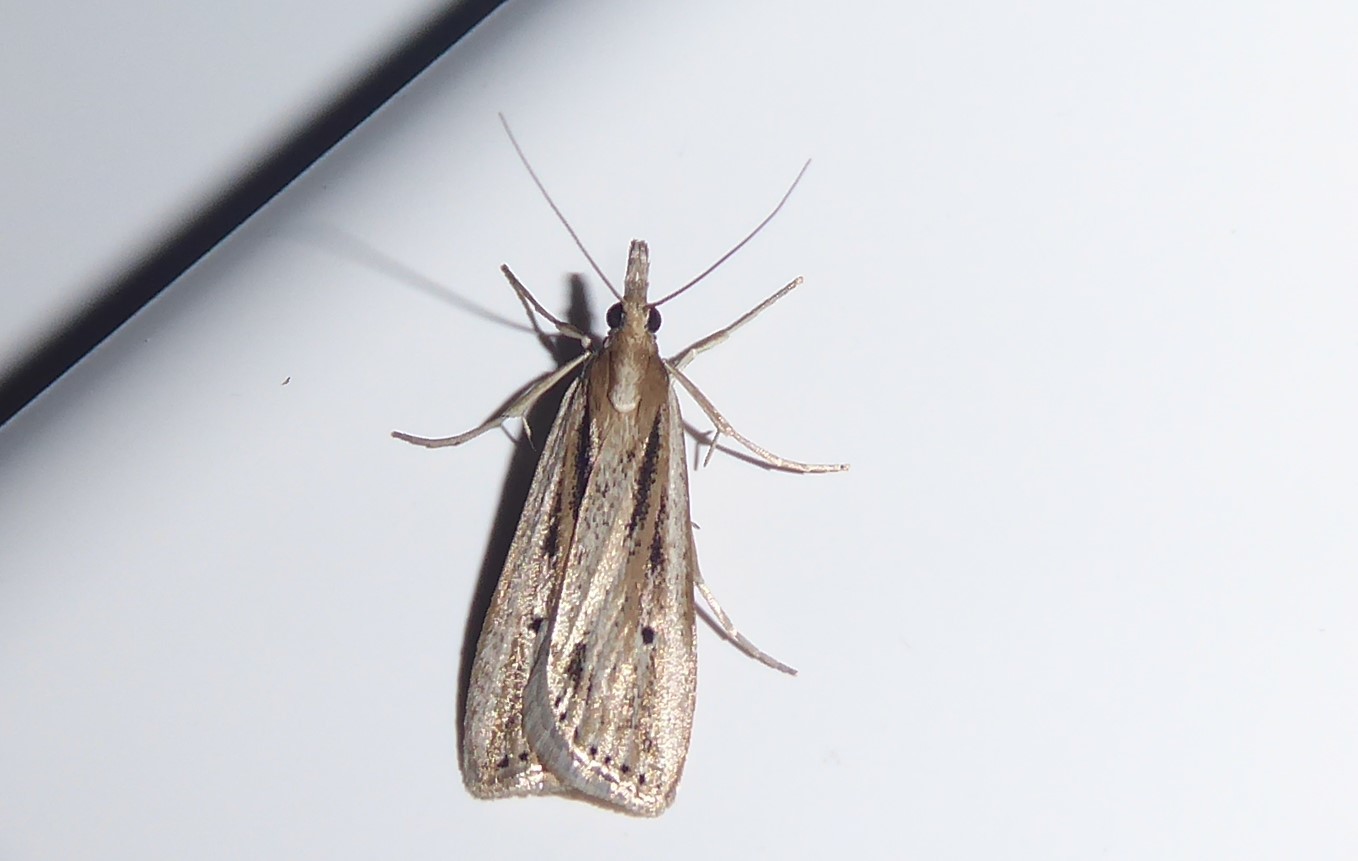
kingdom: Animalia
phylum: Arthropoda
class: Insecta
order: Lepidoptera
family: Crambidae
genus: Eudonia
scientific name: Eudonia sabulosella
